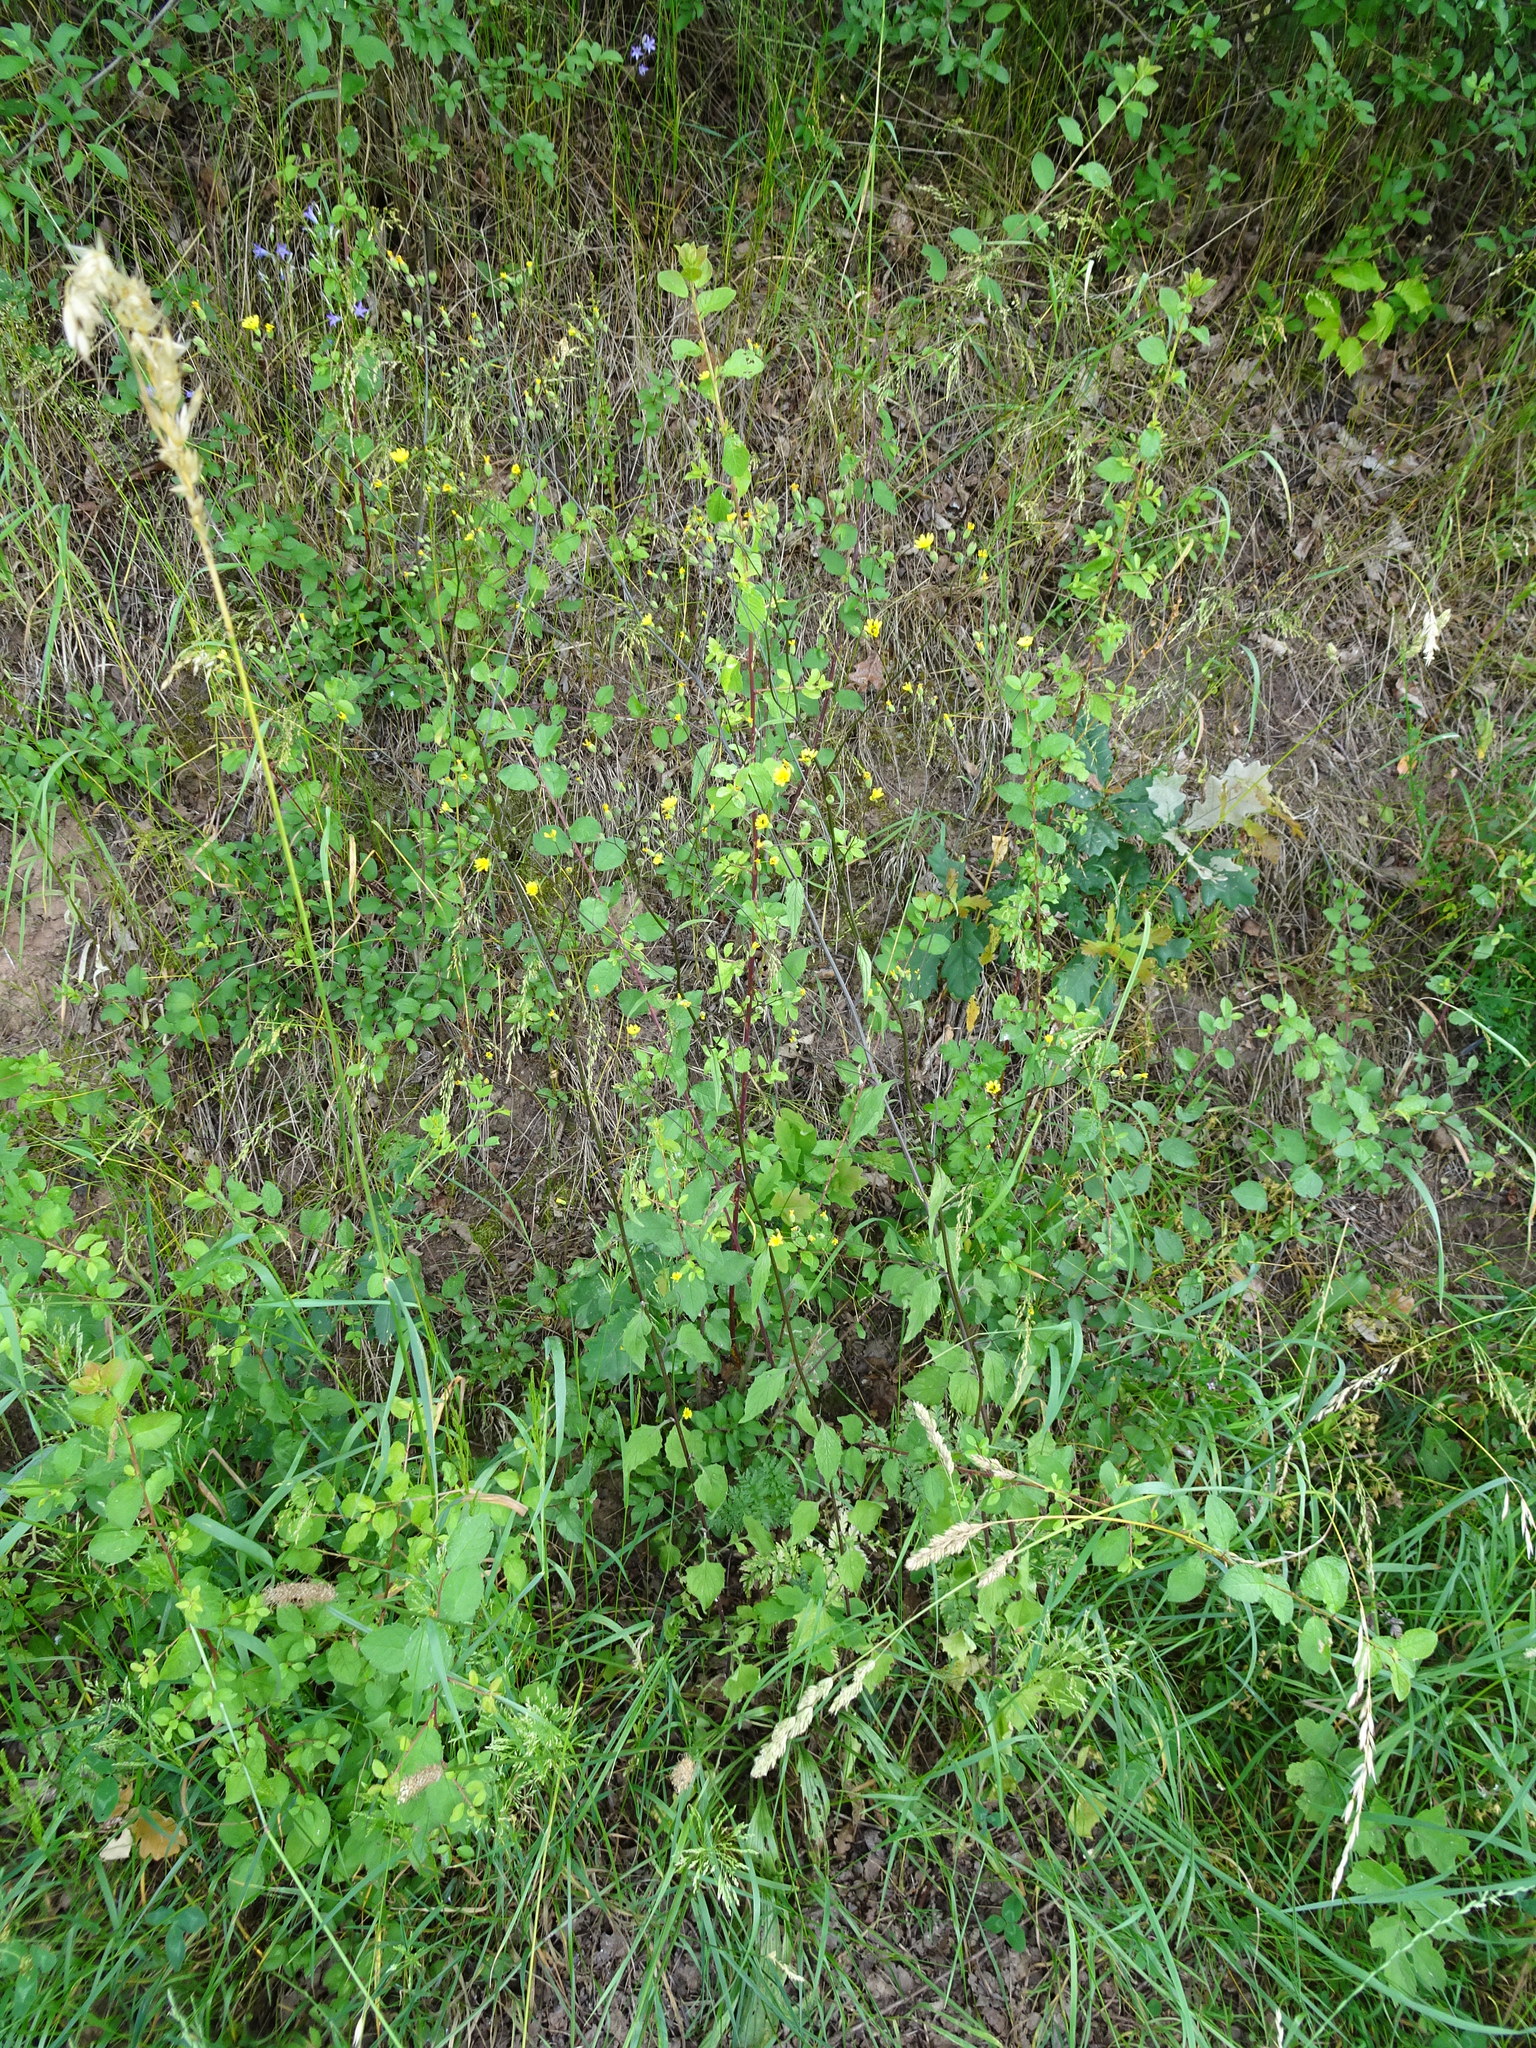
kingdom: Plantae
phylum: Tracheophyta
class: Magnoliopsida
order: Asterales
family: Asteraceae
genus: Lapsana
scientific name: Lapsana communis
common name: Nipplewort
